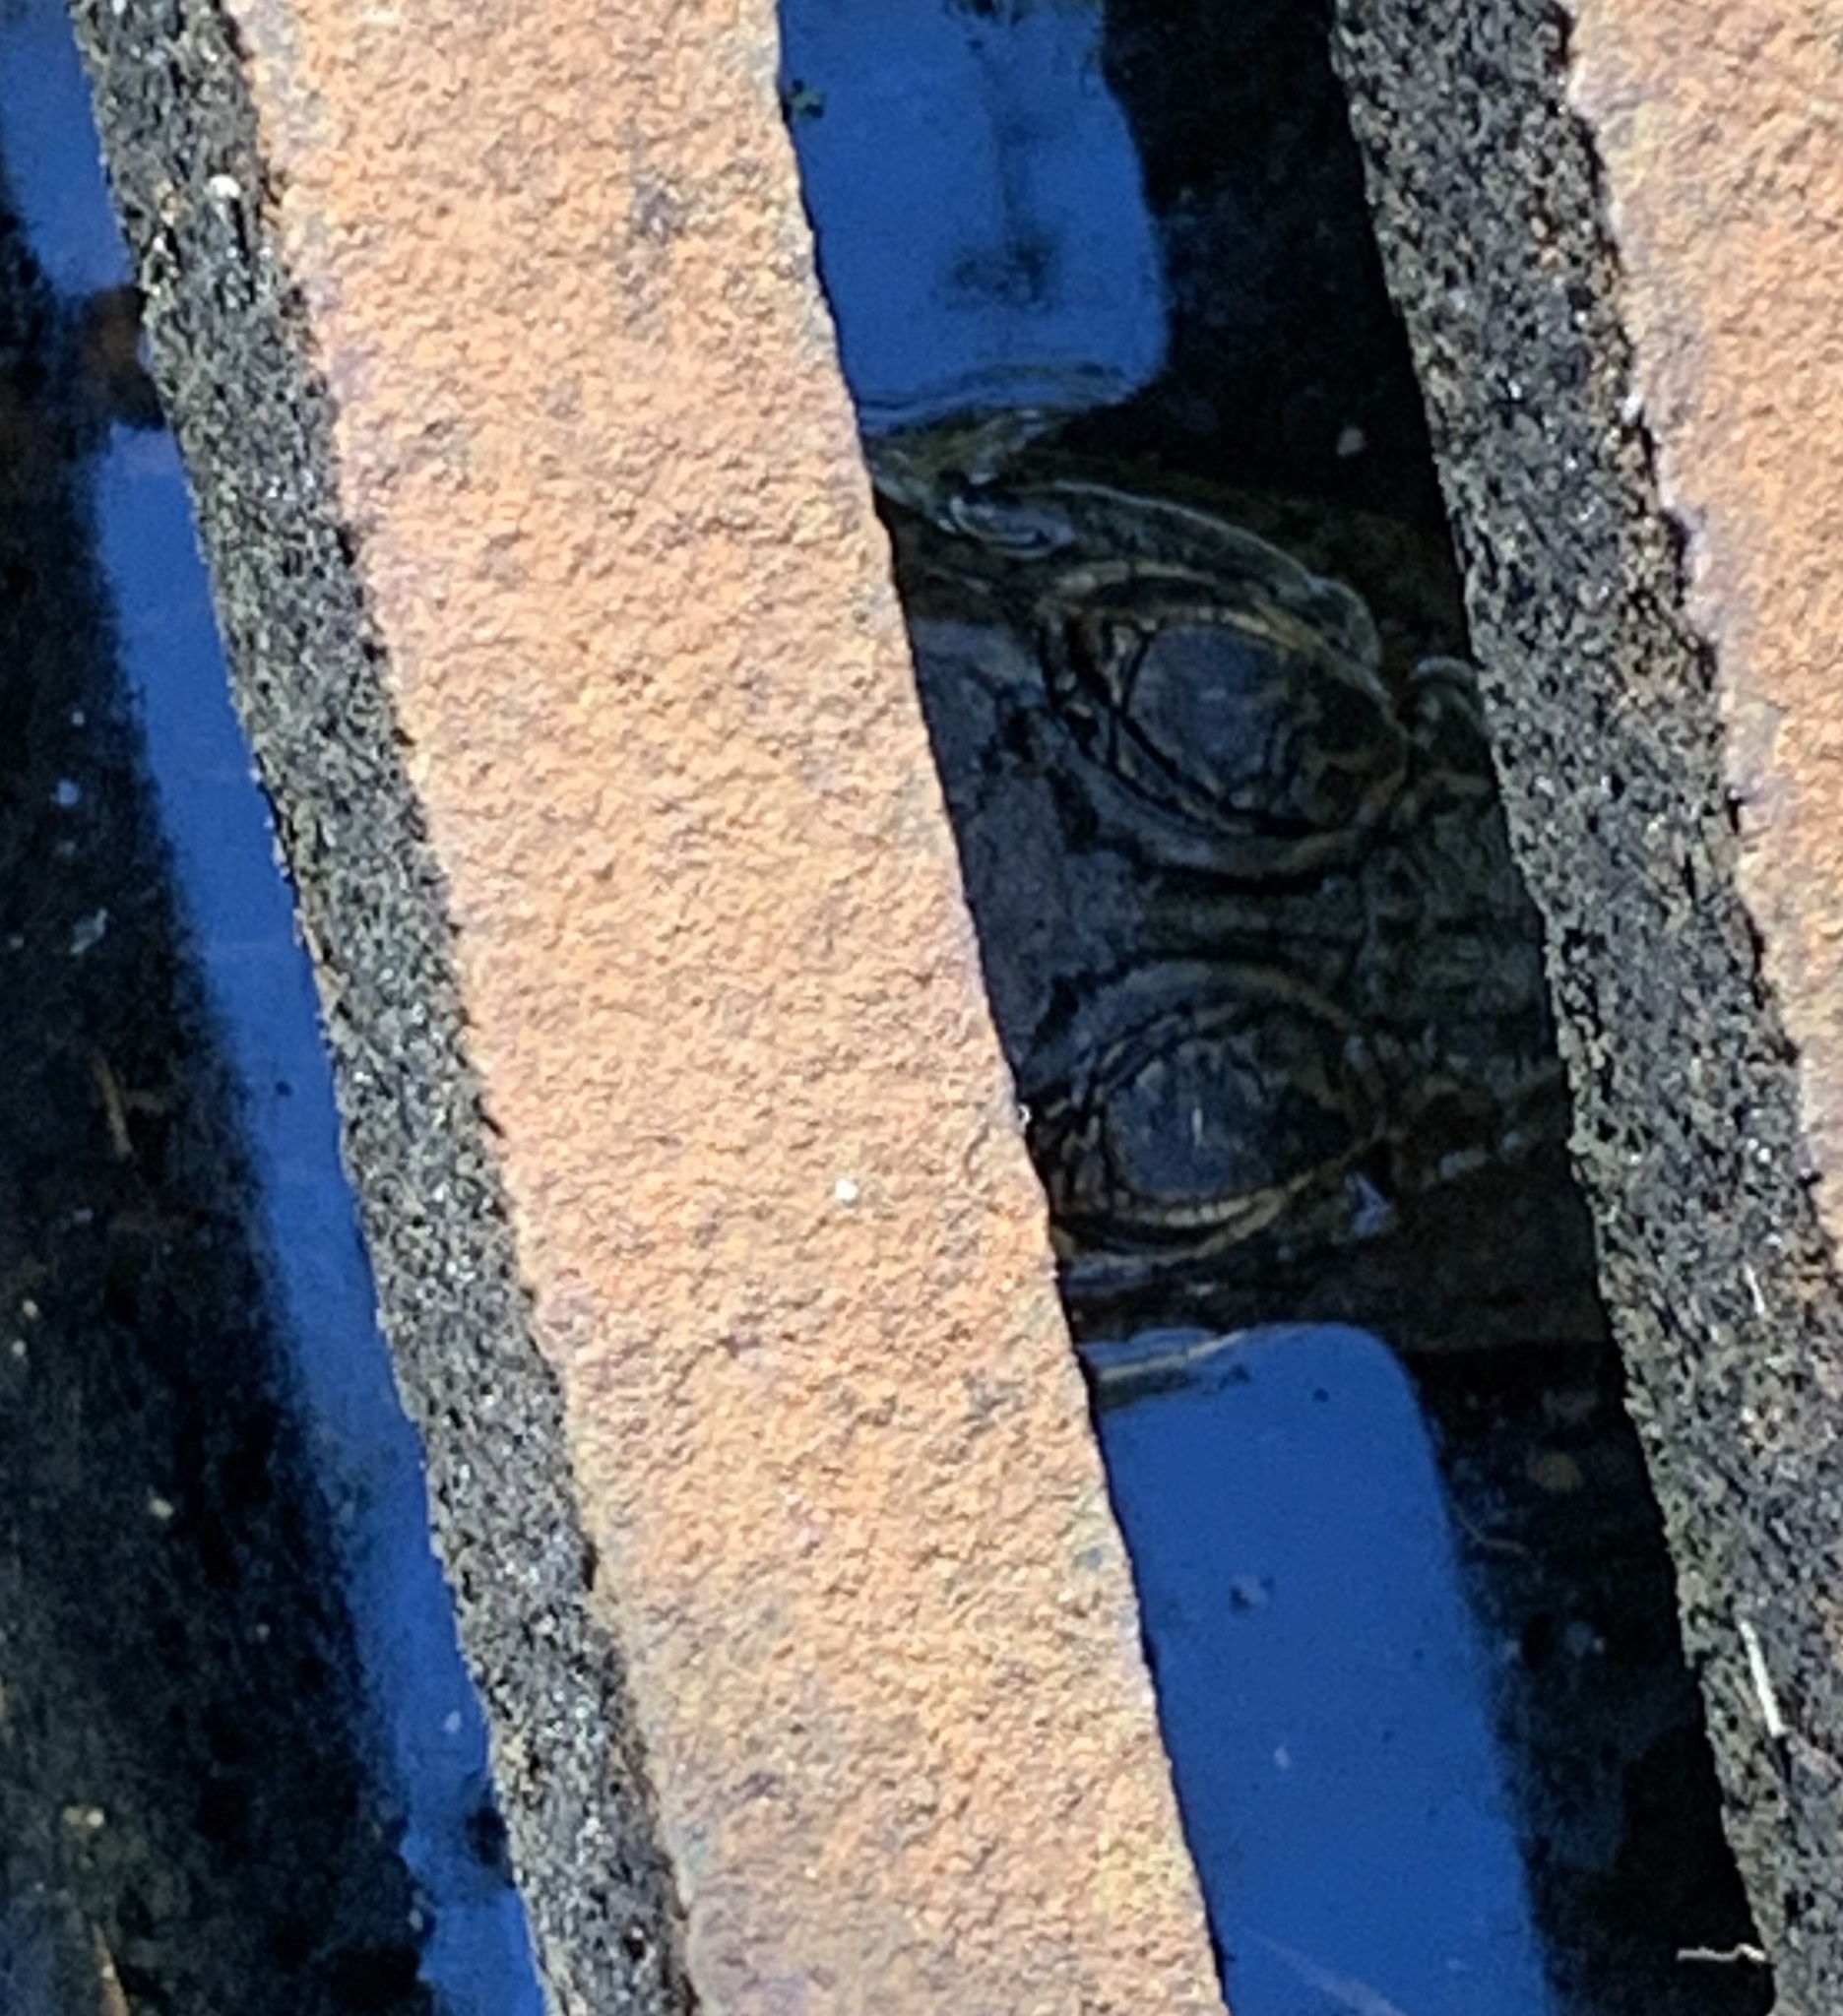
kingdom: Animalia
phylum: Chordata
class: Crocodylia
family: Alligatoridae
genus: Alligator
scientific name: Alligator mississippiensis
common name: American alligator
